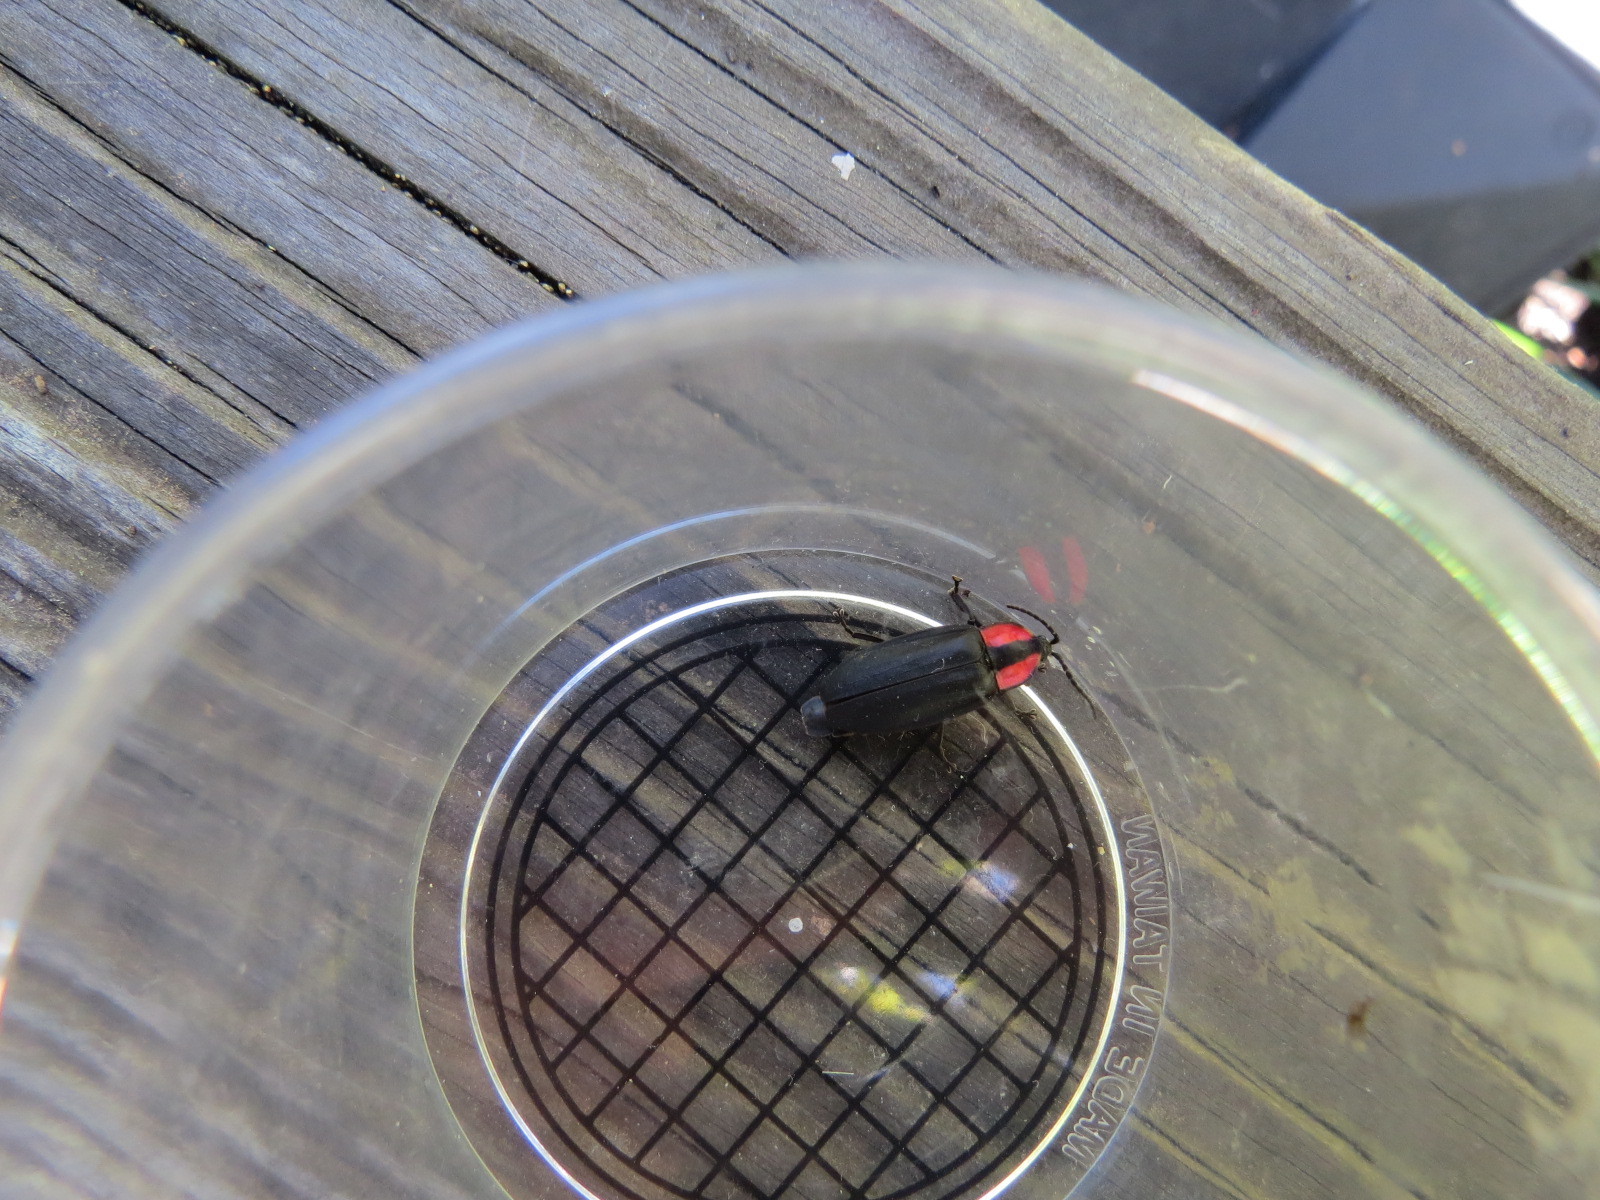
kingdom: Animalia
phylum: Arthropoda
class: Insecta
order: Coleoptera
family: Lampyridae
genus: Photinus
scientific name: Photinus californica
